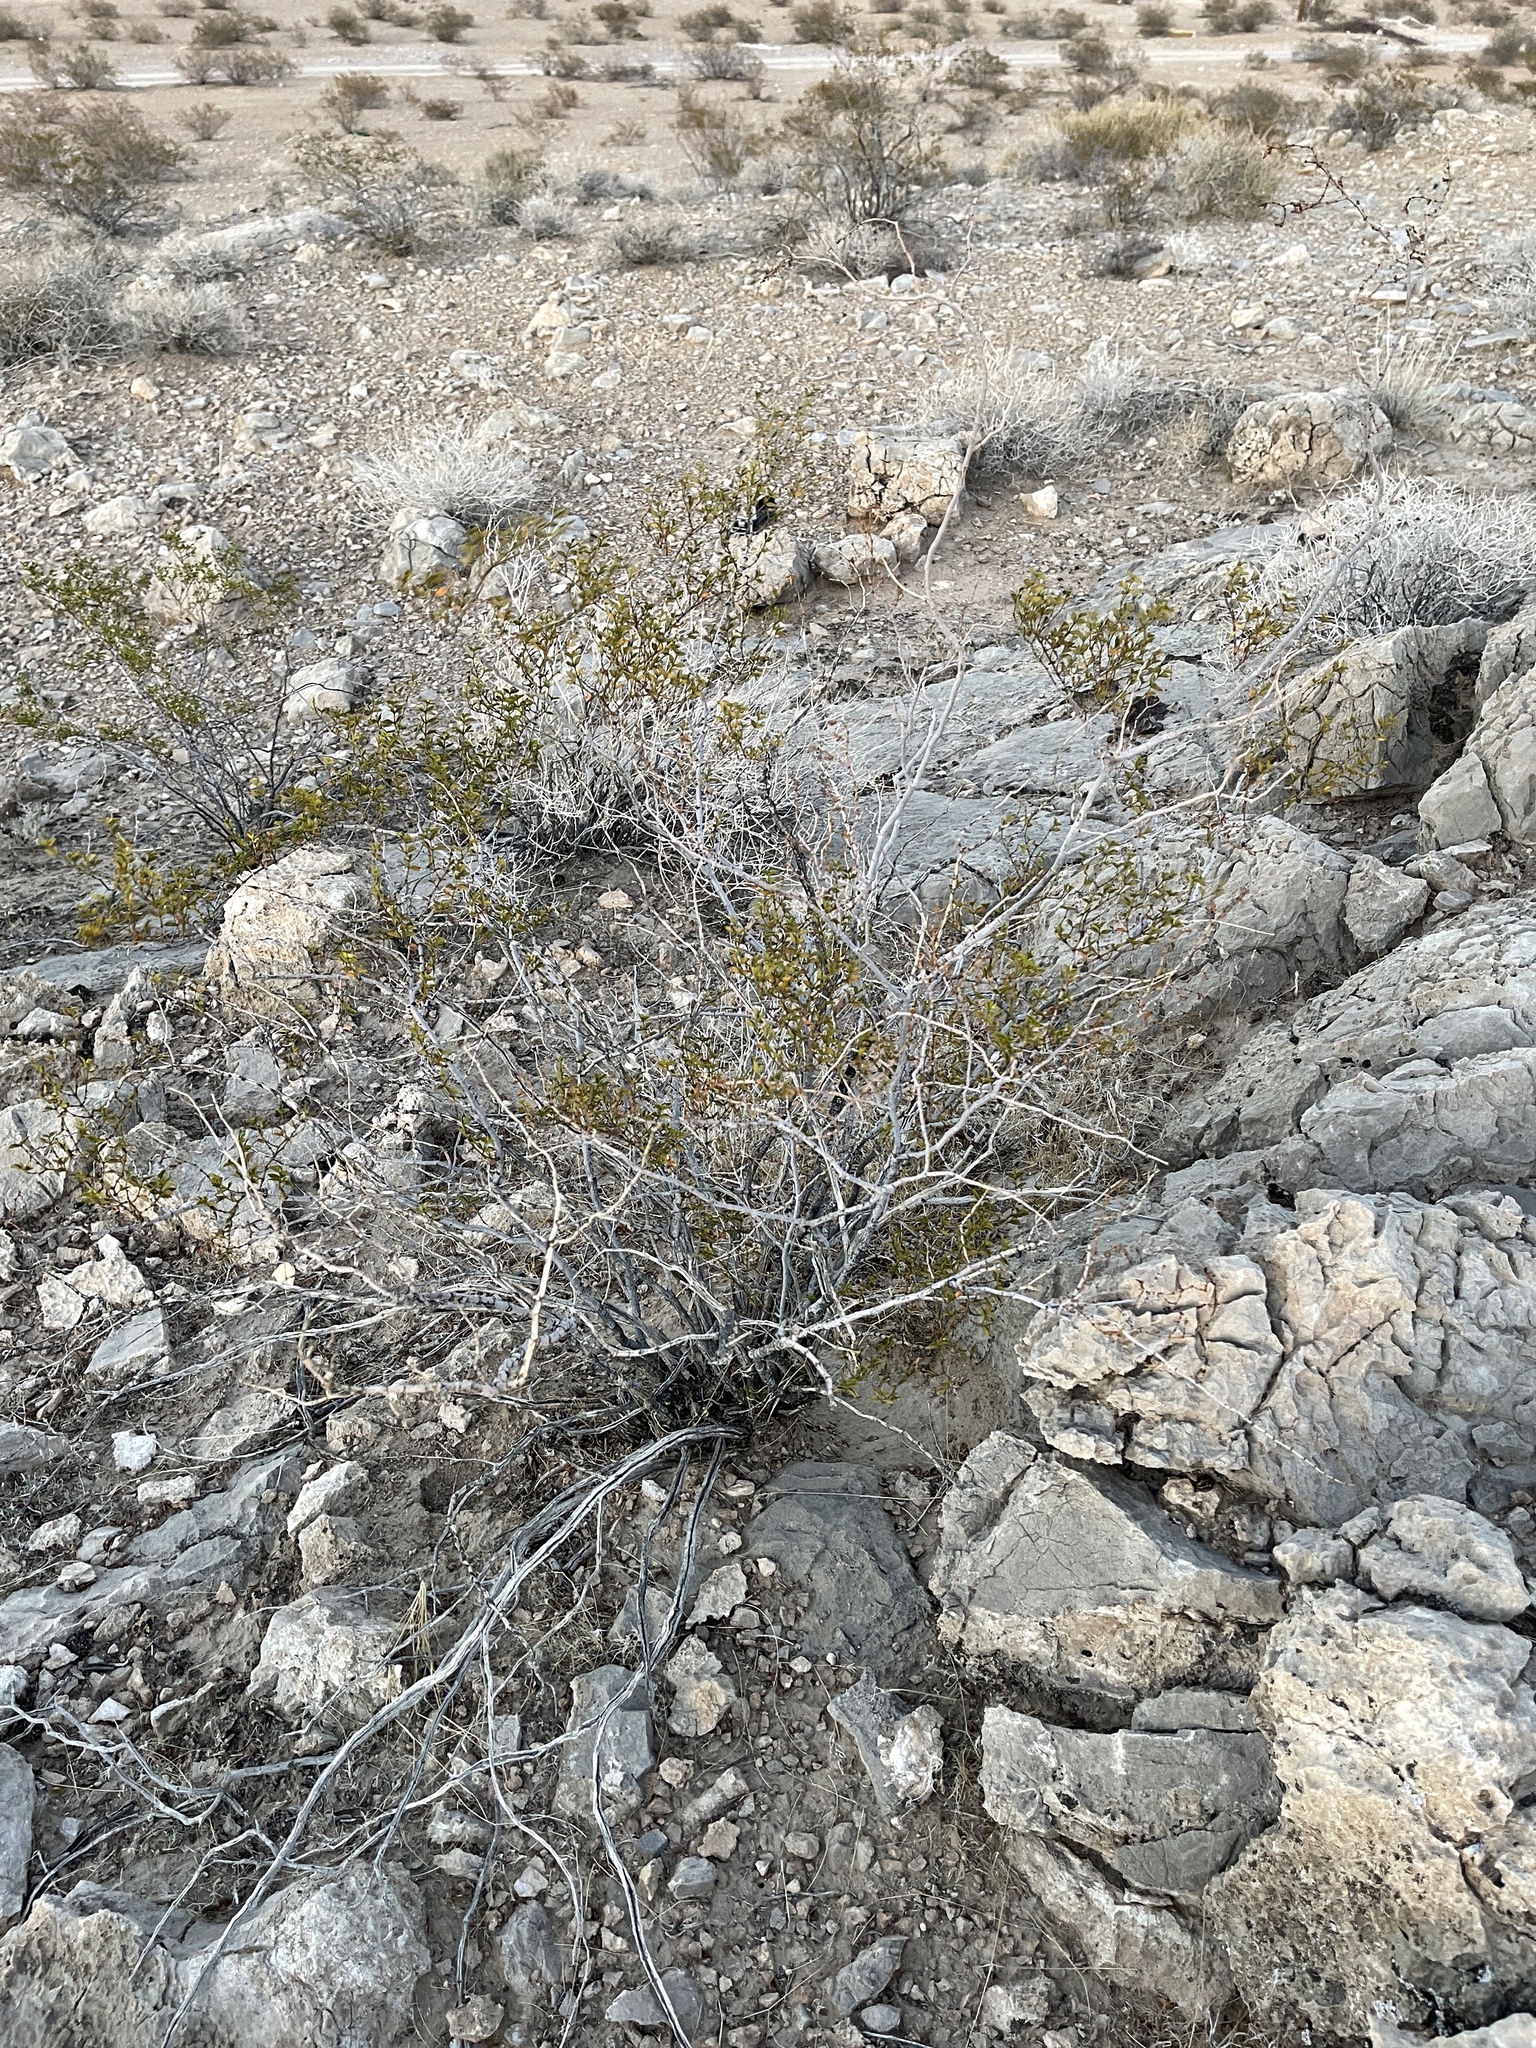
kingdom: Plantae
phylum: Tracheophyta
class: Magnoliopsida
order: Zygophyllales
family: Zygophyllaceae
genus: Larrea
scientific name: Larrea tridentata
